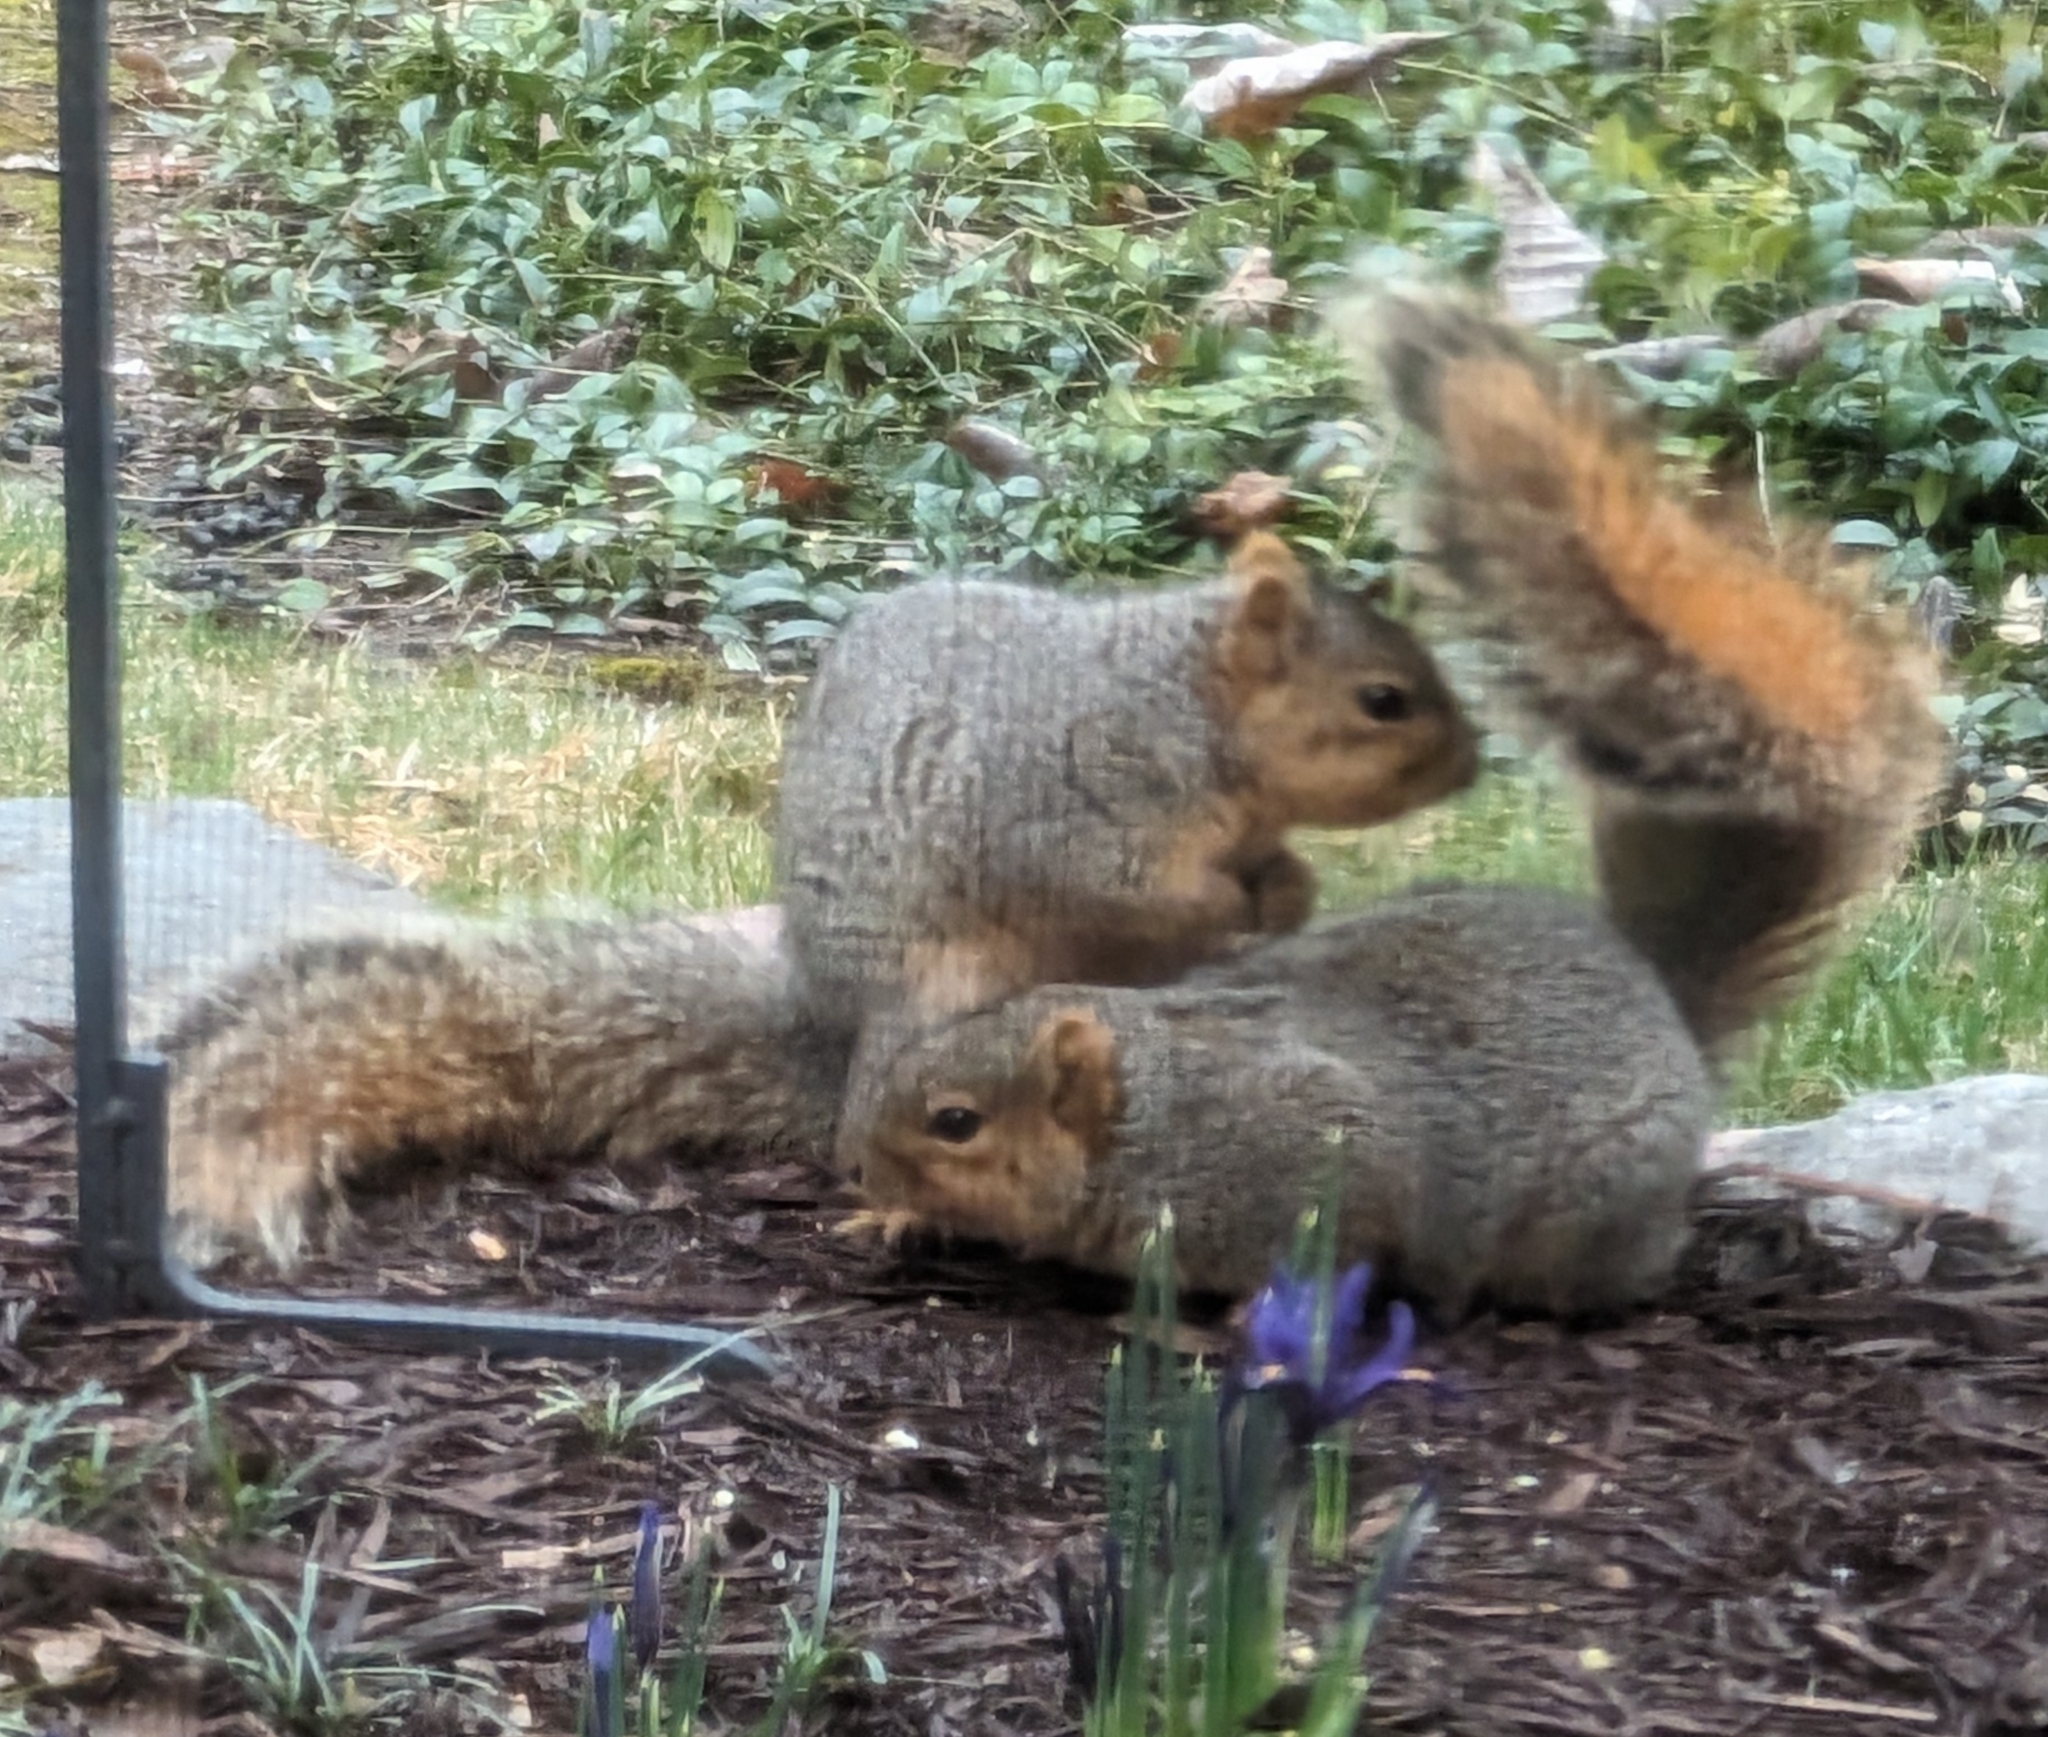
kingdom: Animalia
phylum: Chordata
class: Mammalia
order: Rodentia
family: Sciuridae
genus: Sciurus
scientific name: Sciurus niger
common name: Fox squirrel
